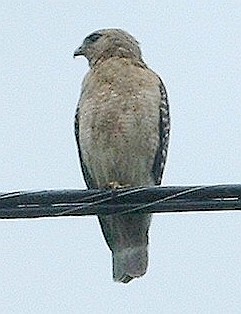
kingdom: Animalia
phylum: Chordata
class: Aves
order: Accipitriformes
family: Accipitridae
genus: Buteo
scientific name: Buteo lineatus
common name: Red-shouldered hawk
